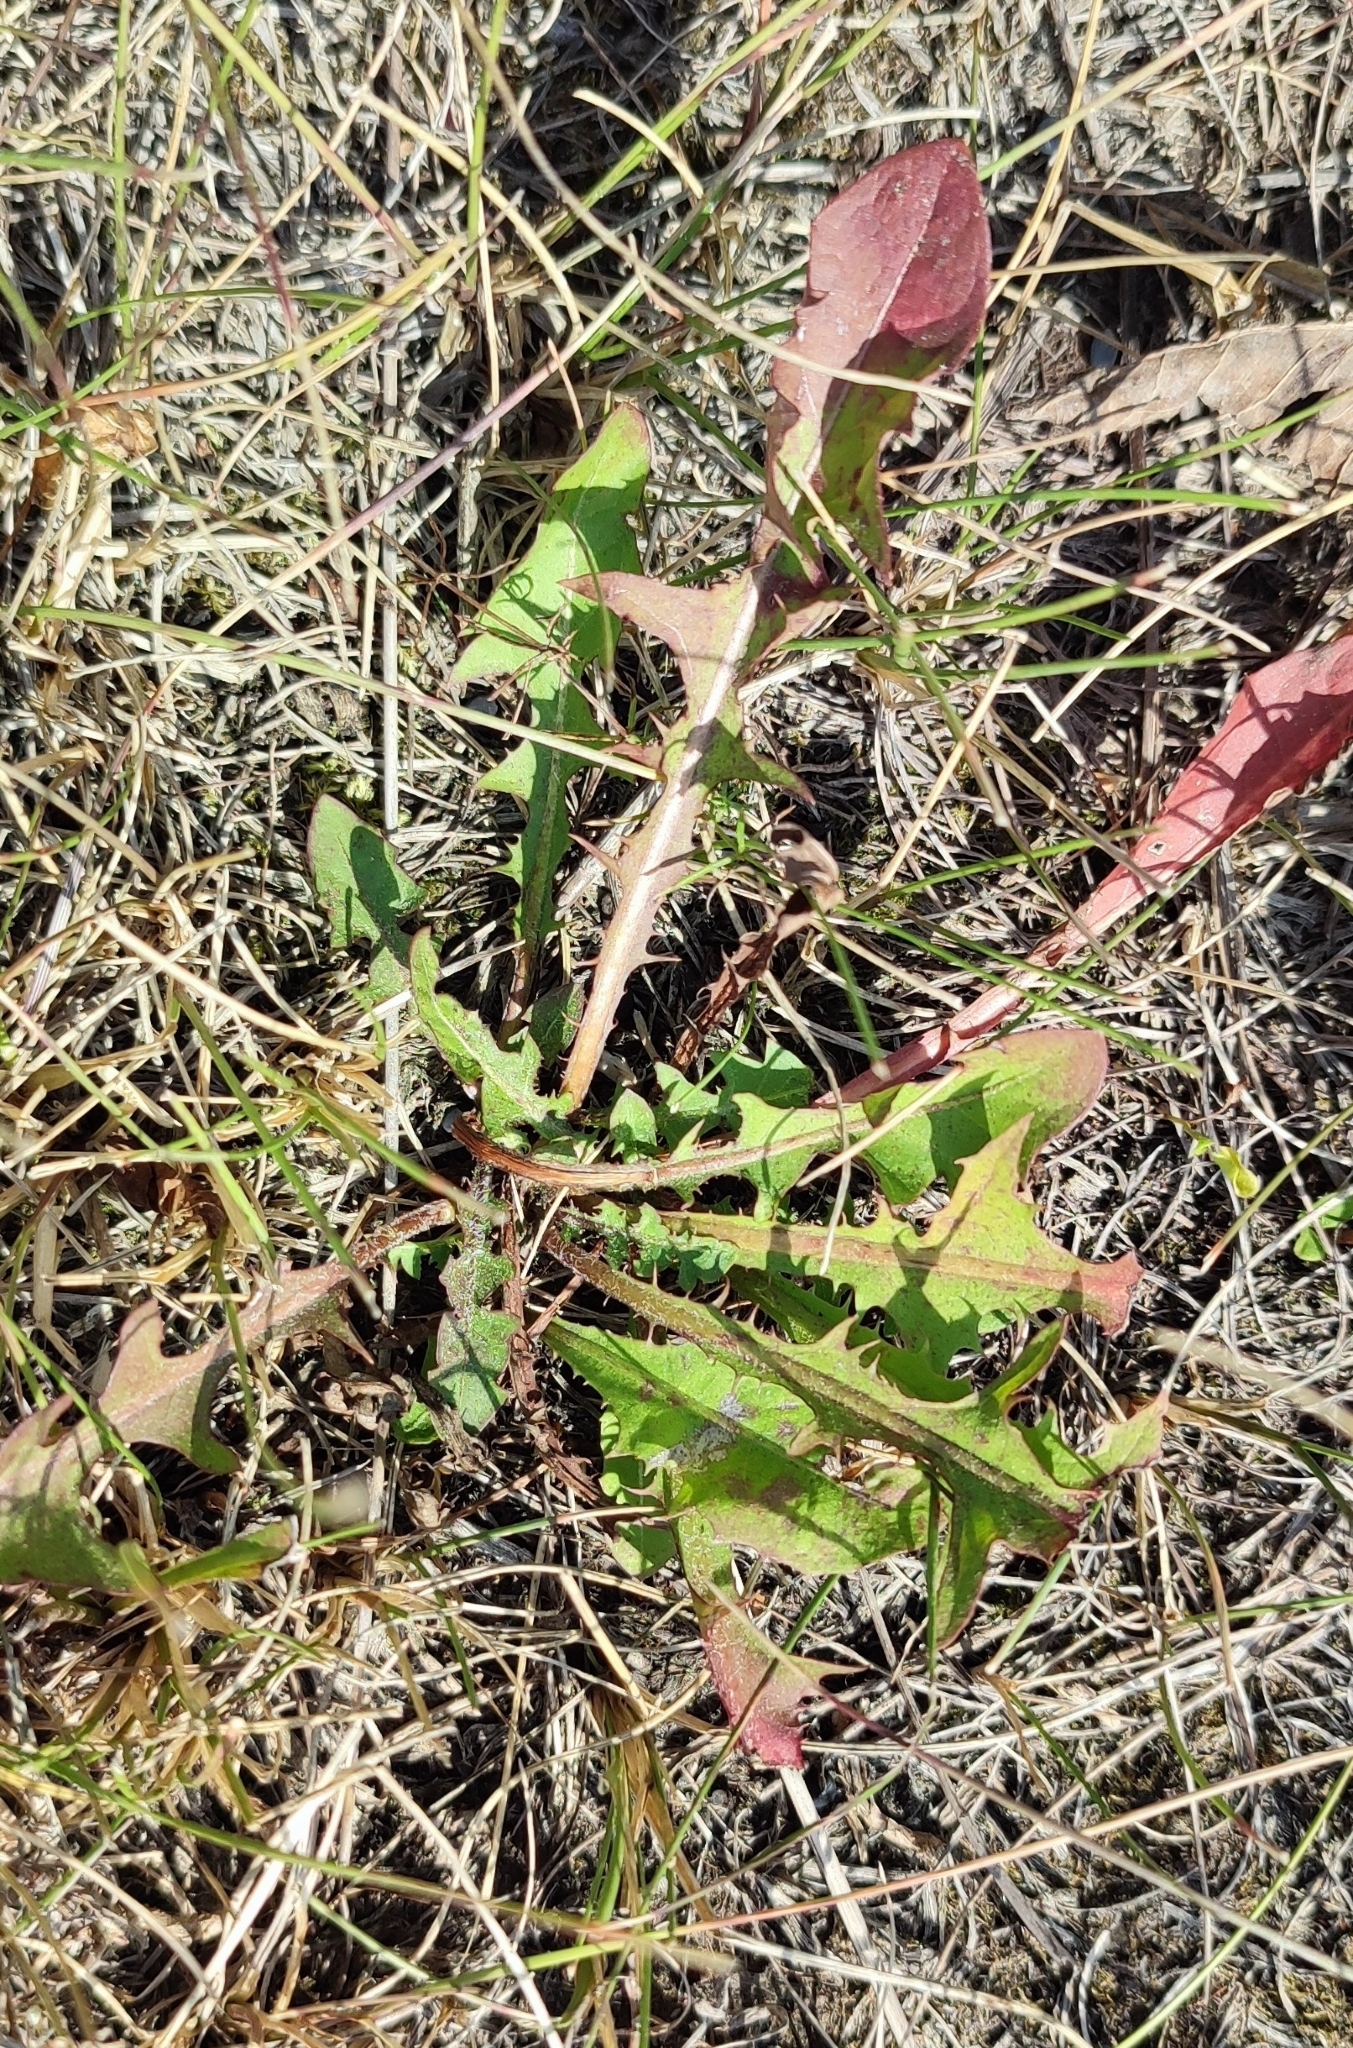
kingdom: Plantae
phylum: Tracheophyta
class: Magnoliopsida
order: Asterales
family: Asteraceae
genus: Taraxacum
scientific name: Taraxacum officinale
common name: Common dandelion
